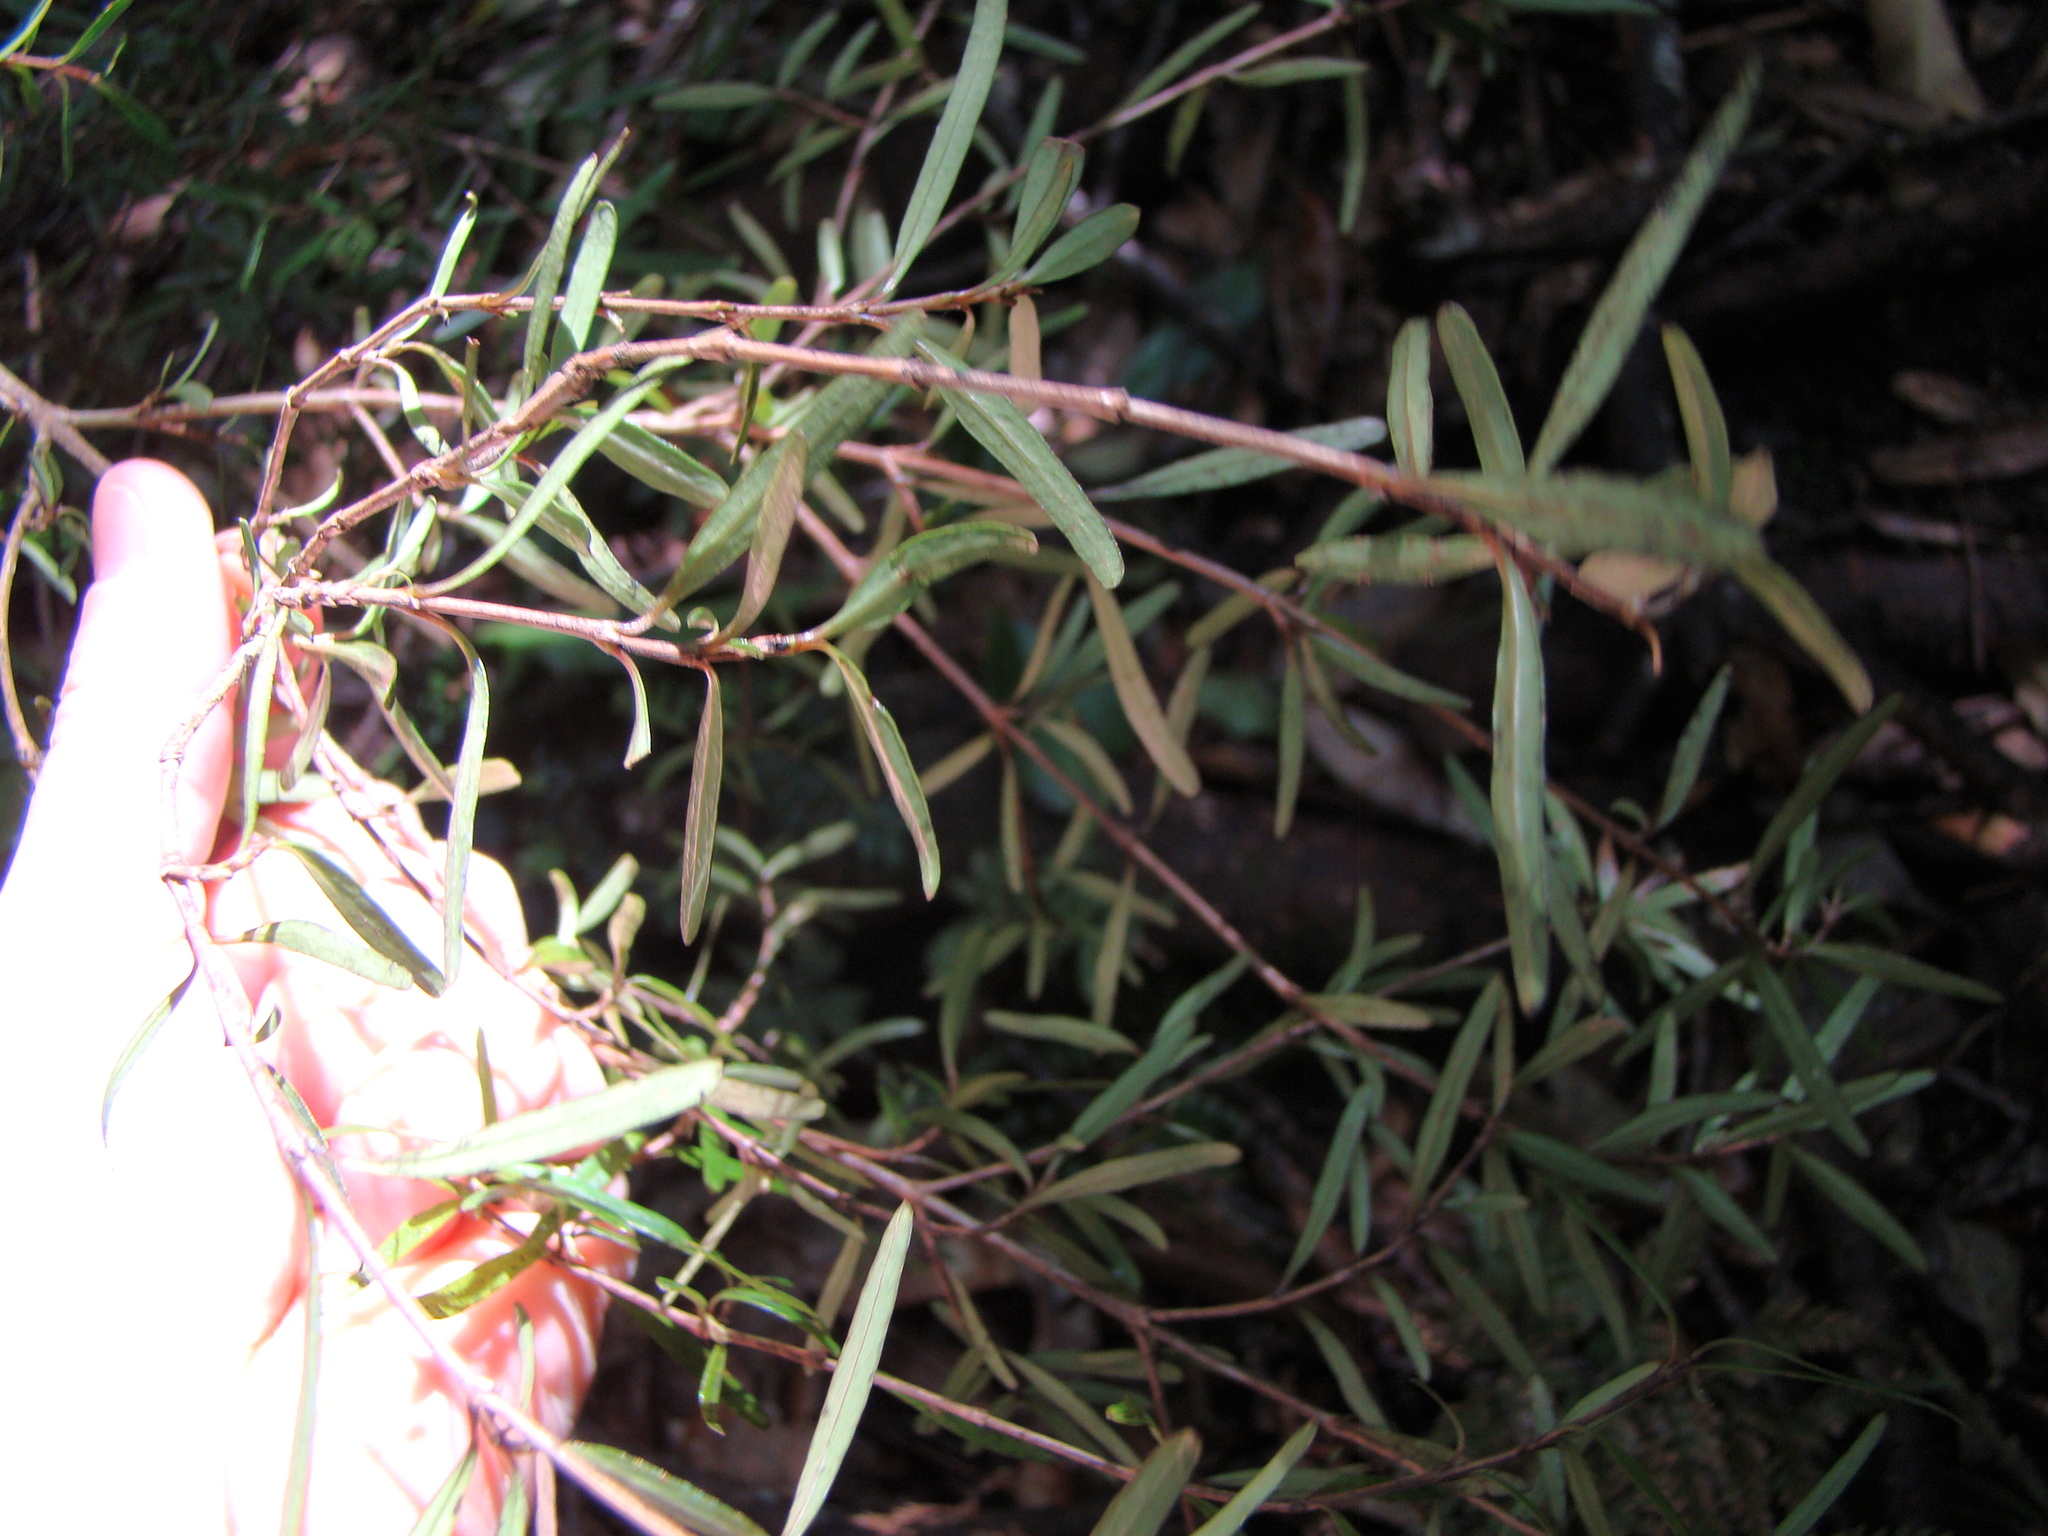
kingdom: Plantae
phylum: Tracheophyta
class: Magnoliopsida
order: Gentianales
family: Rubiaceae
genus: Coprosma
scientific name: Coprosma linariifolia
